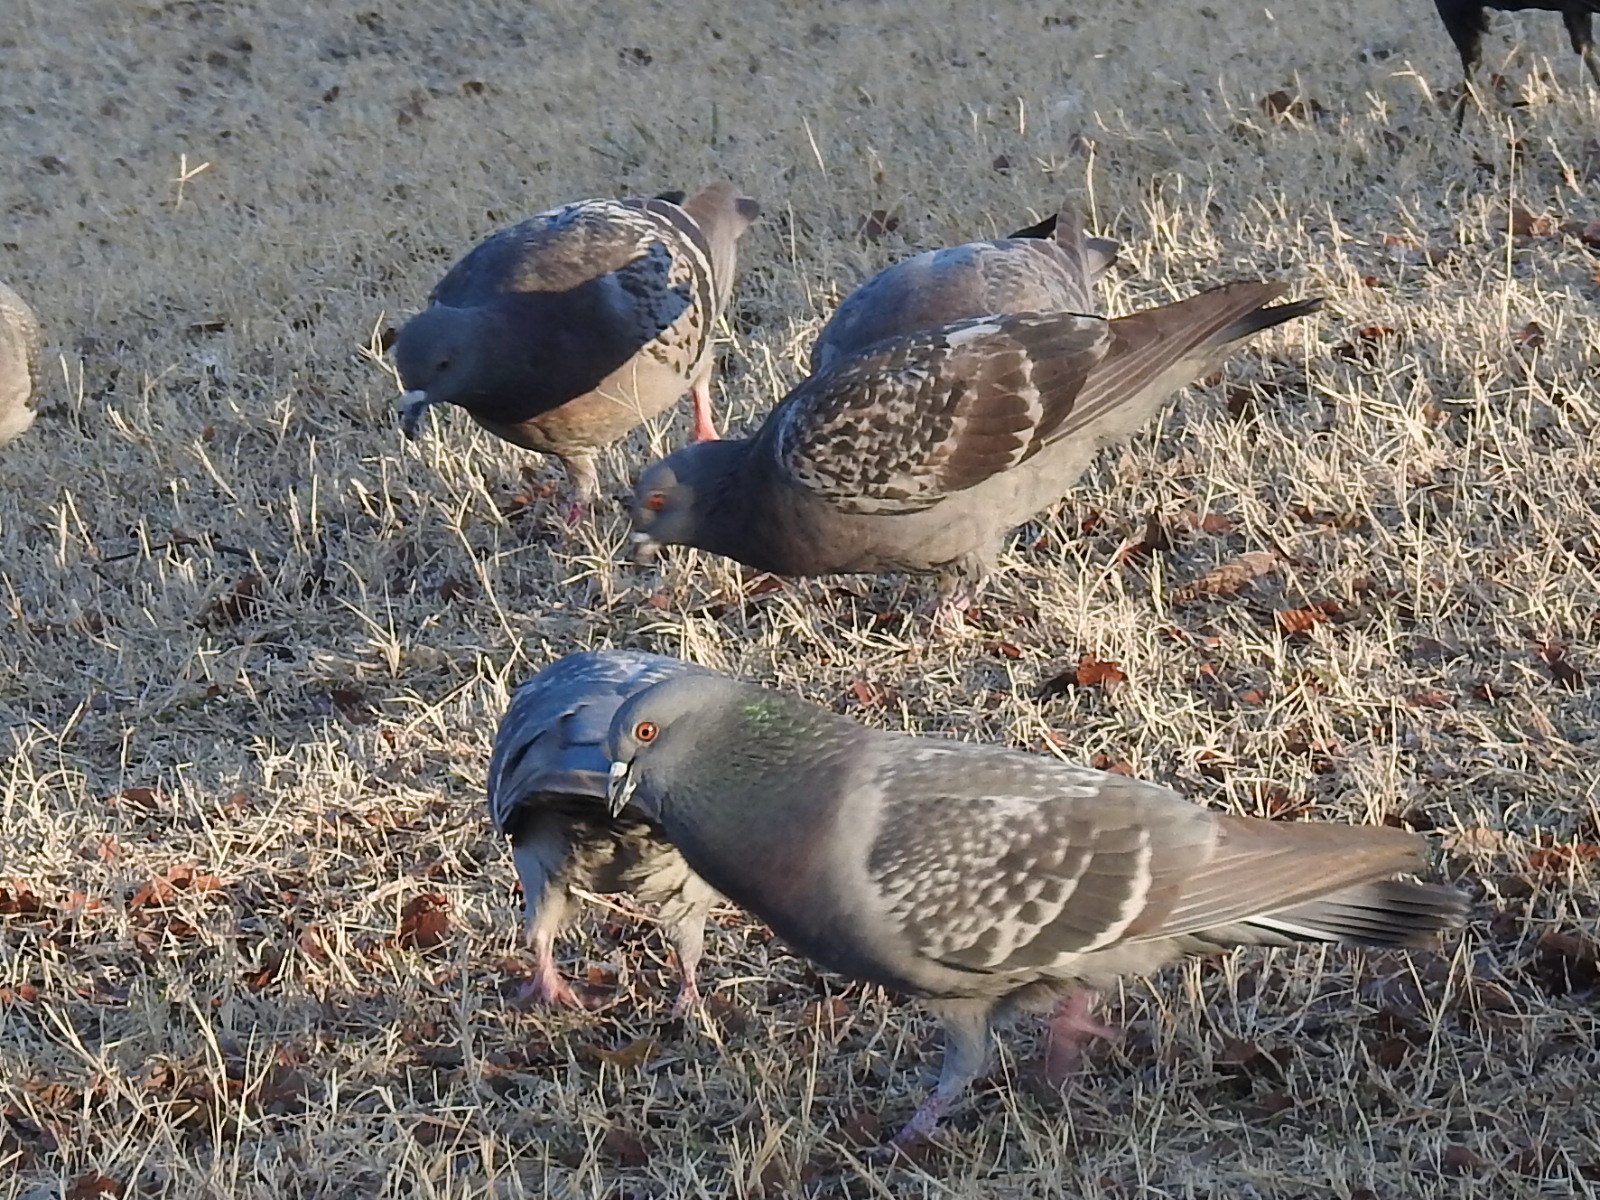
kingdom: Animalia
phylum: Chordata
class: Aves
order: Columbiformes
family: Columbidae
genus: Columba
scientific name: Columba livia
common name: Rock pigeon
